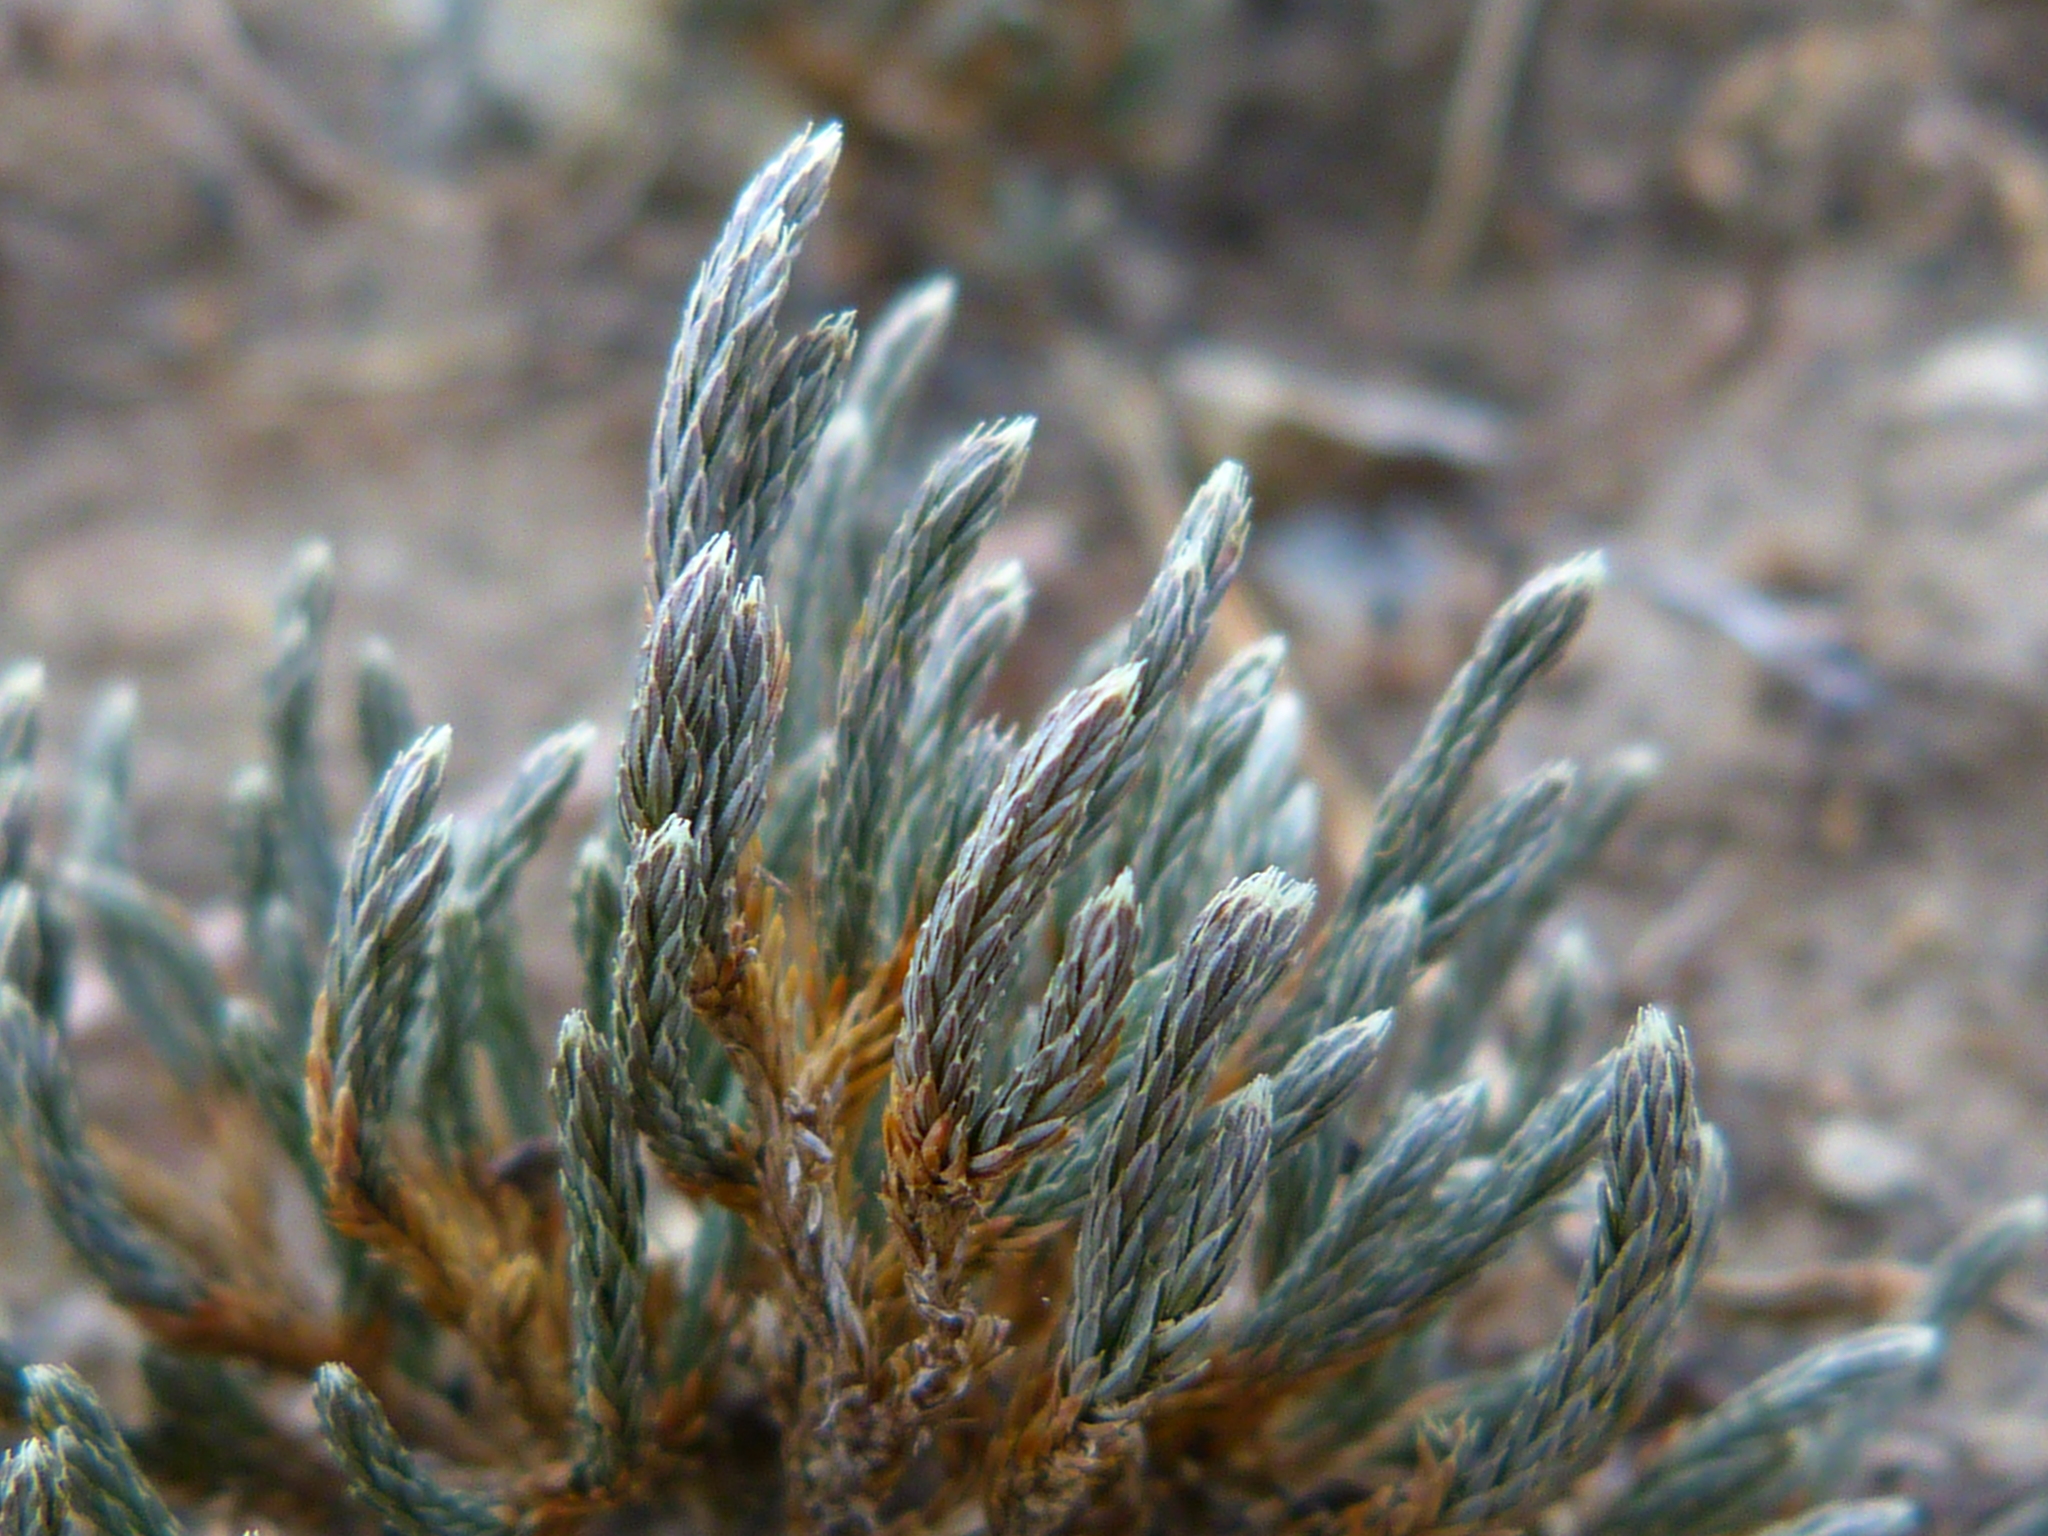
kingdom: Plantae
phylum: Tracheophyta
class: Lycopodiopsida
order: Selaginellales
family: Selaginellaceae
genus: Selaginella
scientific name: Selaginella bigelovii
